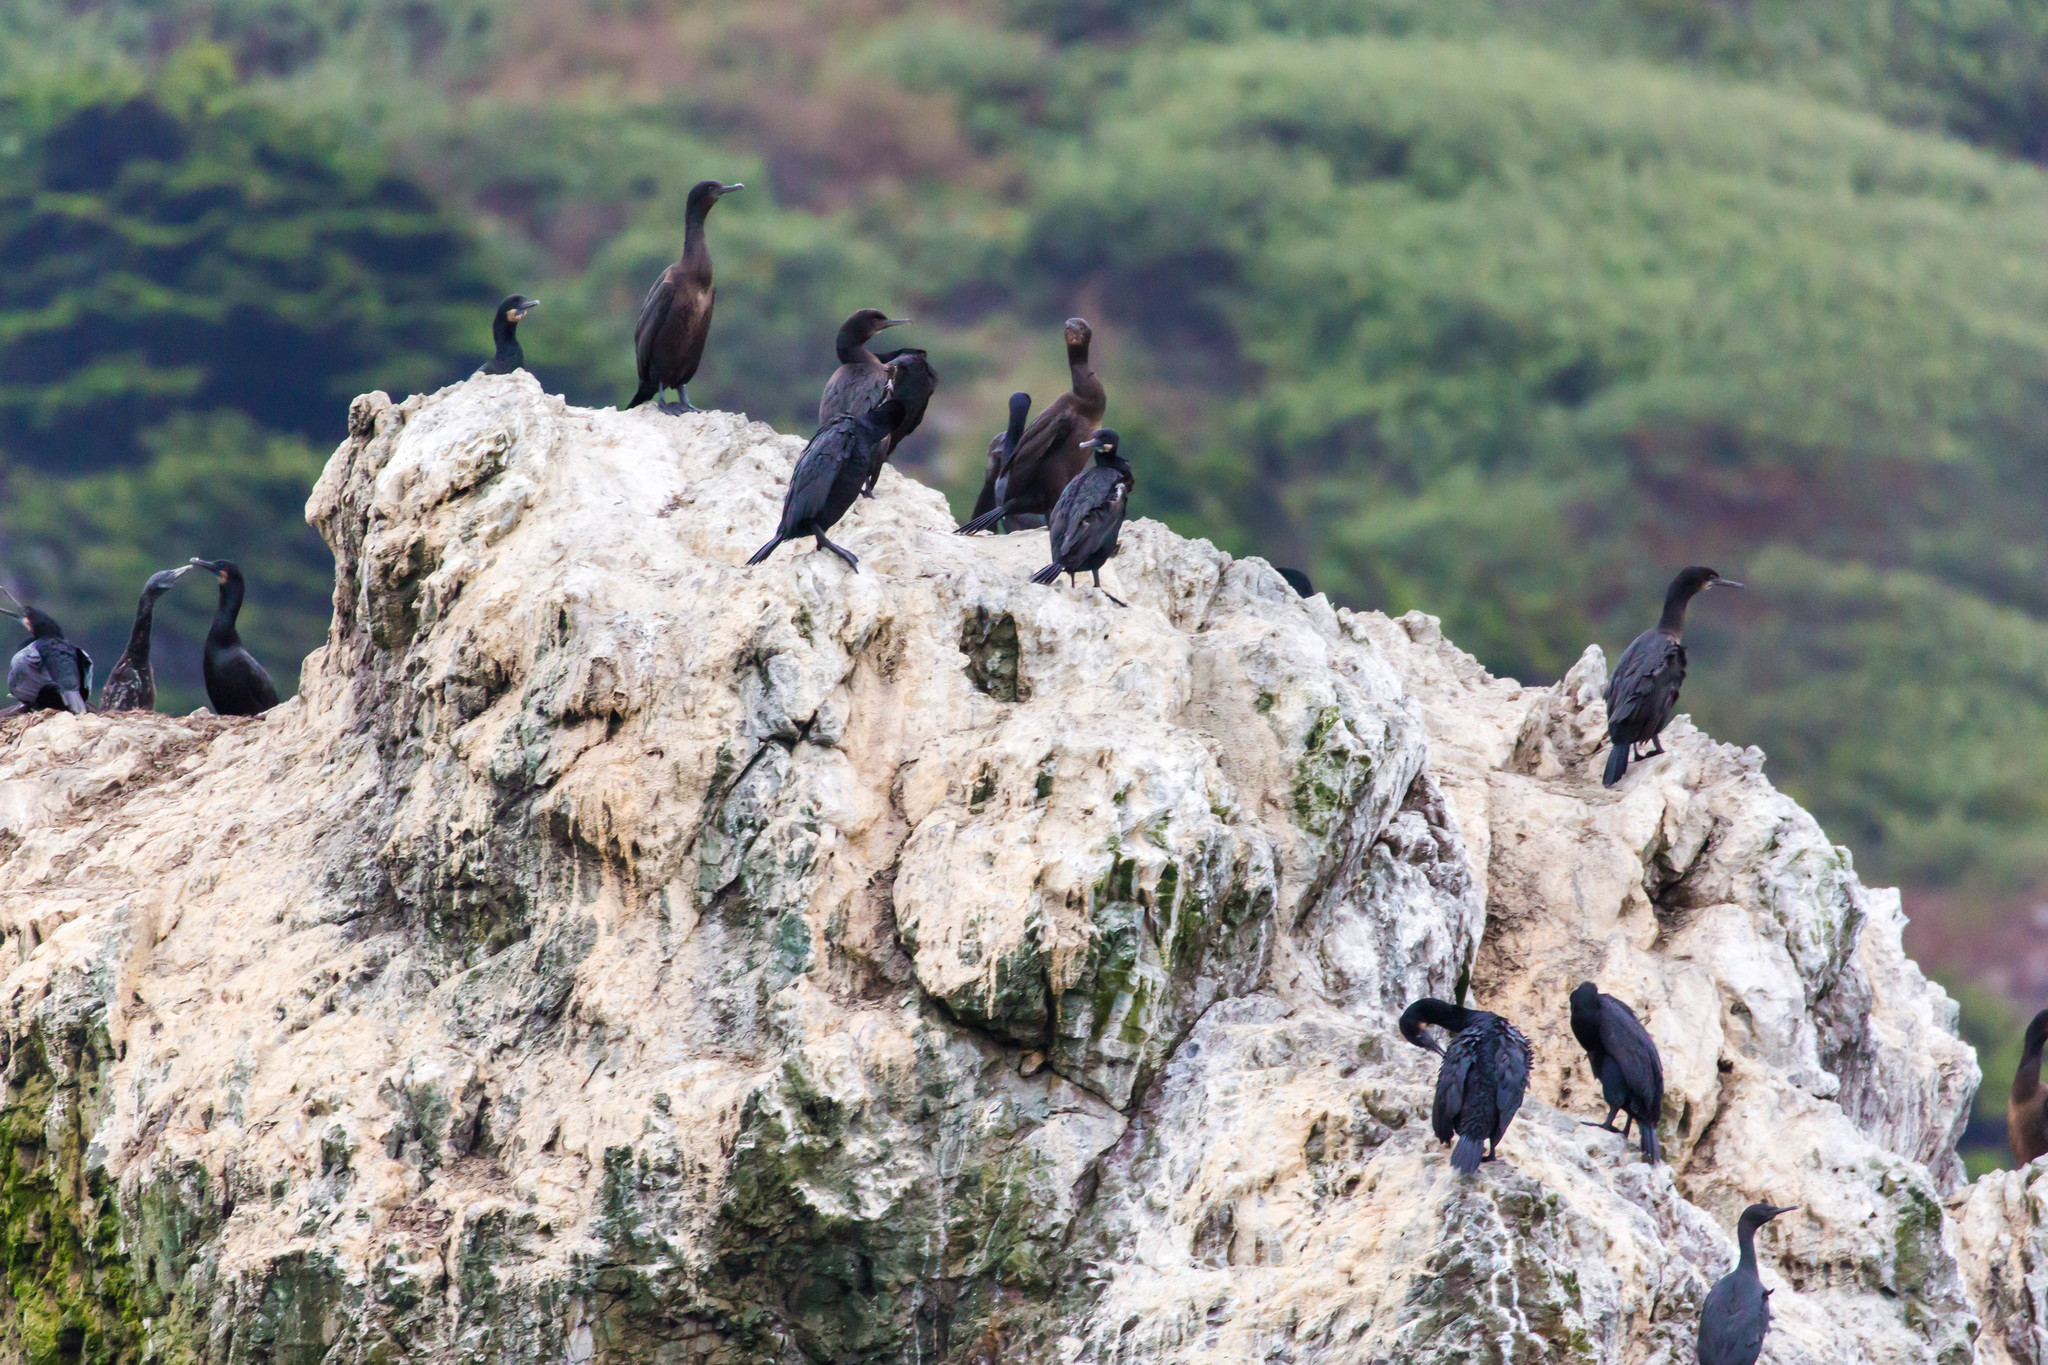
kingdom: Animalia
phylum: Chordata
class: Aves
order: Suliformes
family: Phalacrocoracidae
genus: Urile
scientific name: Urile penicillatus
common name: Brandt's cormorant
